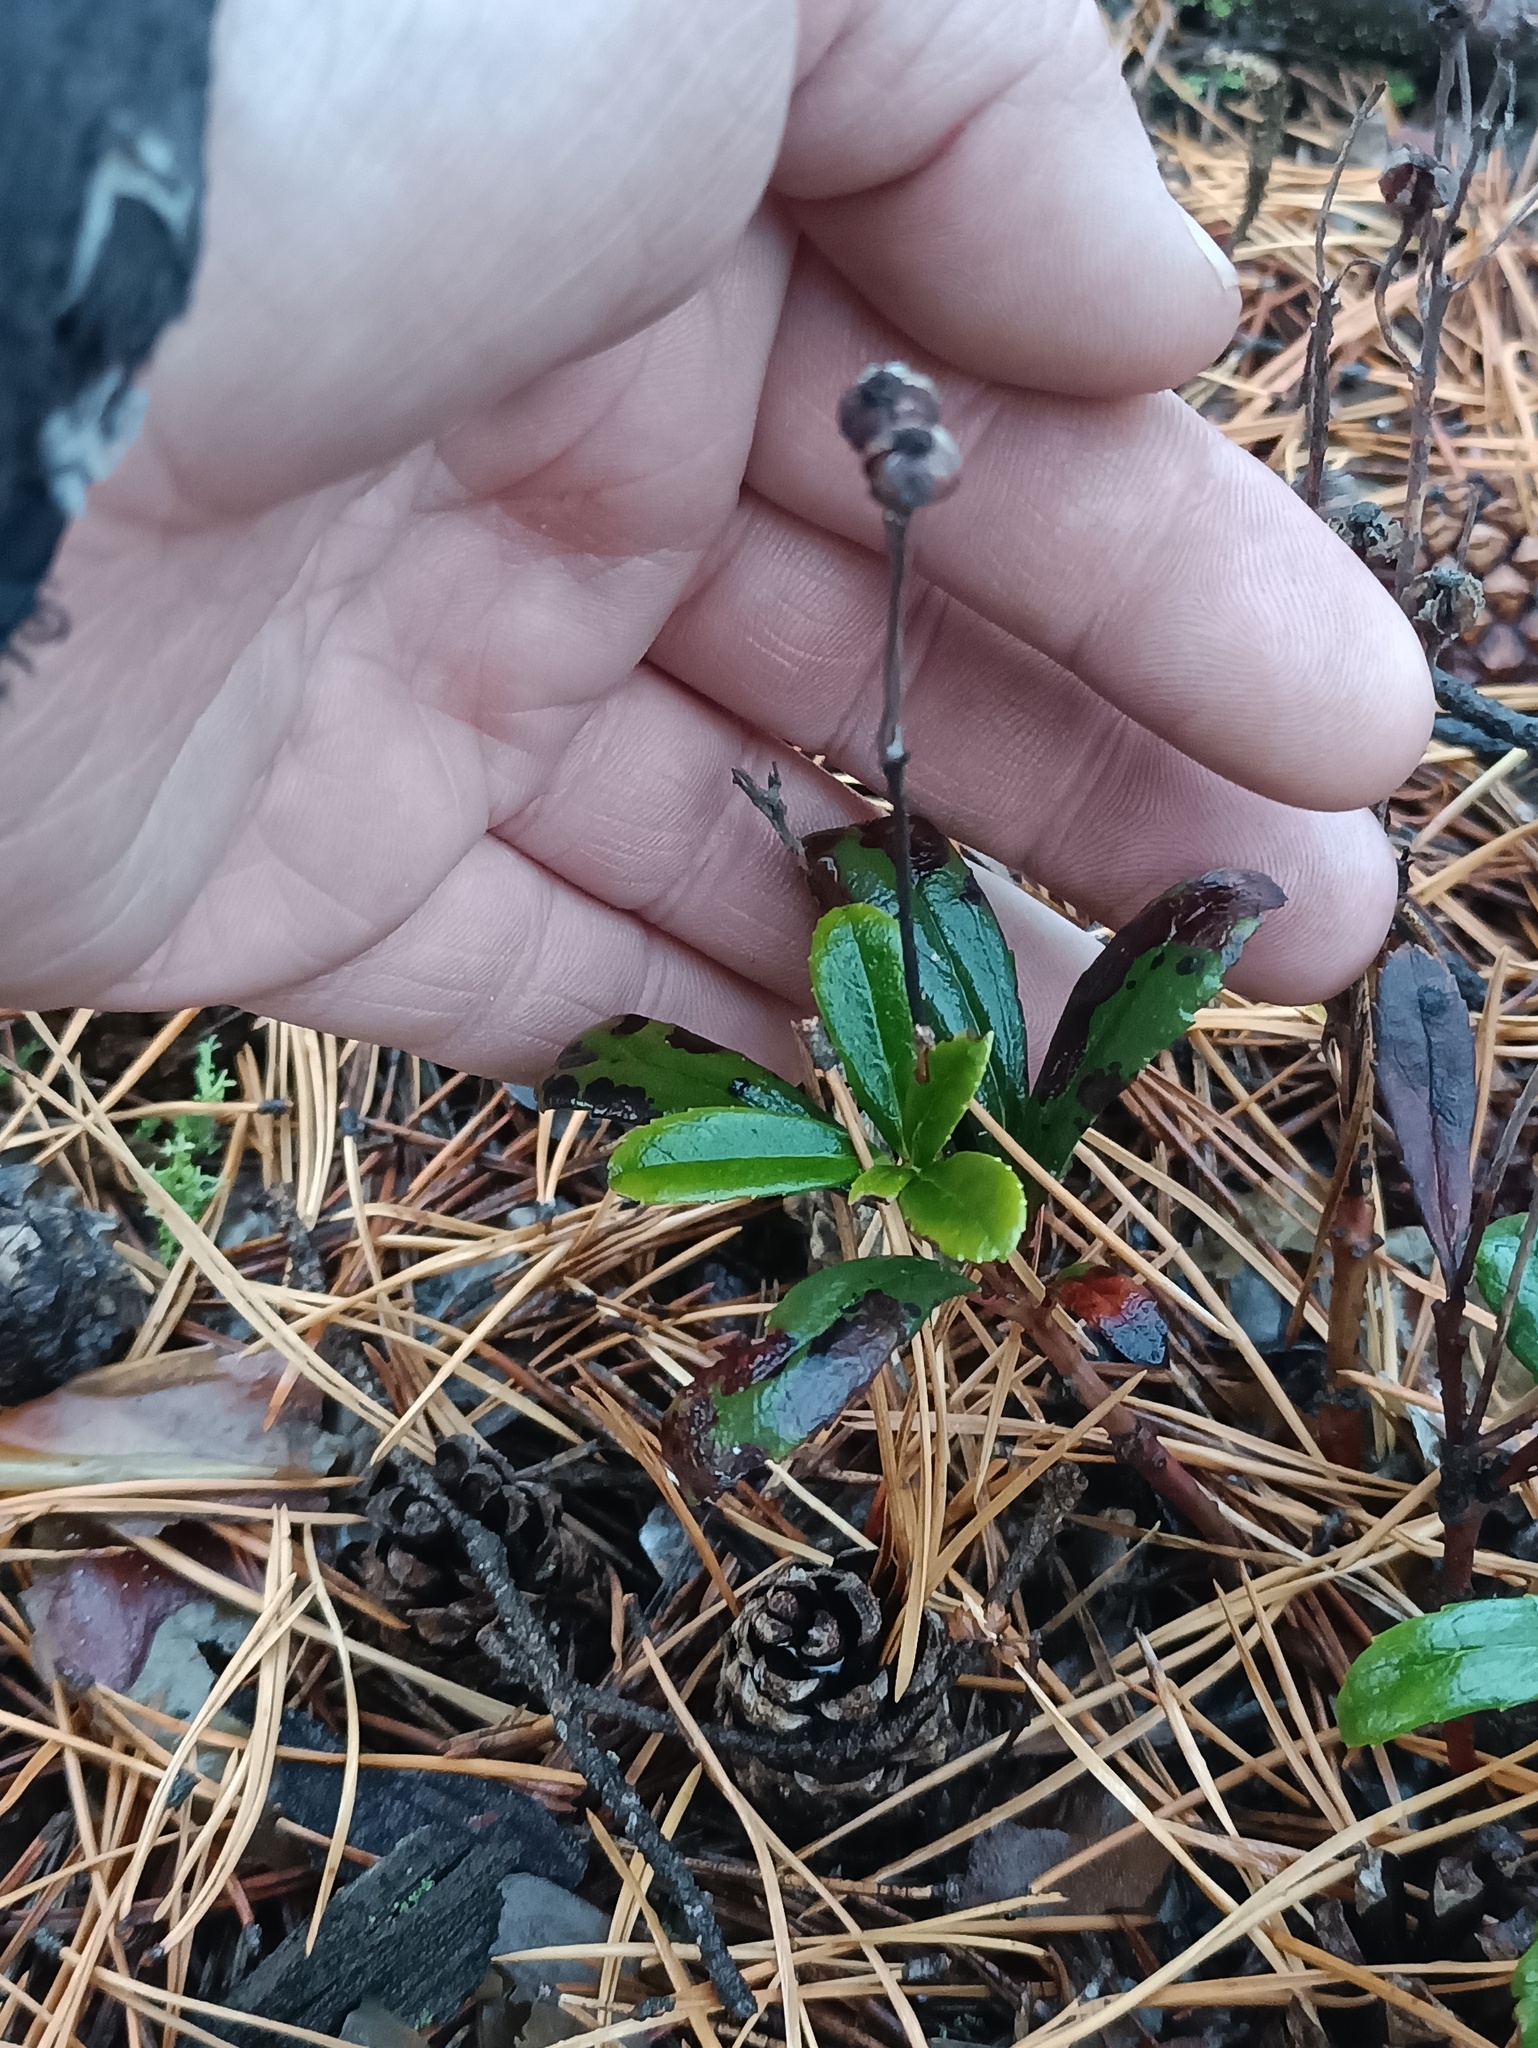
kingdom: Plantae
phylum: Tracheophyta
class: Magnoliopsida
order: Ericales
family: Ericaceae
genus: Chimaphila
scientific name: Chimaphila umbellata
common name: Pipsissewa
